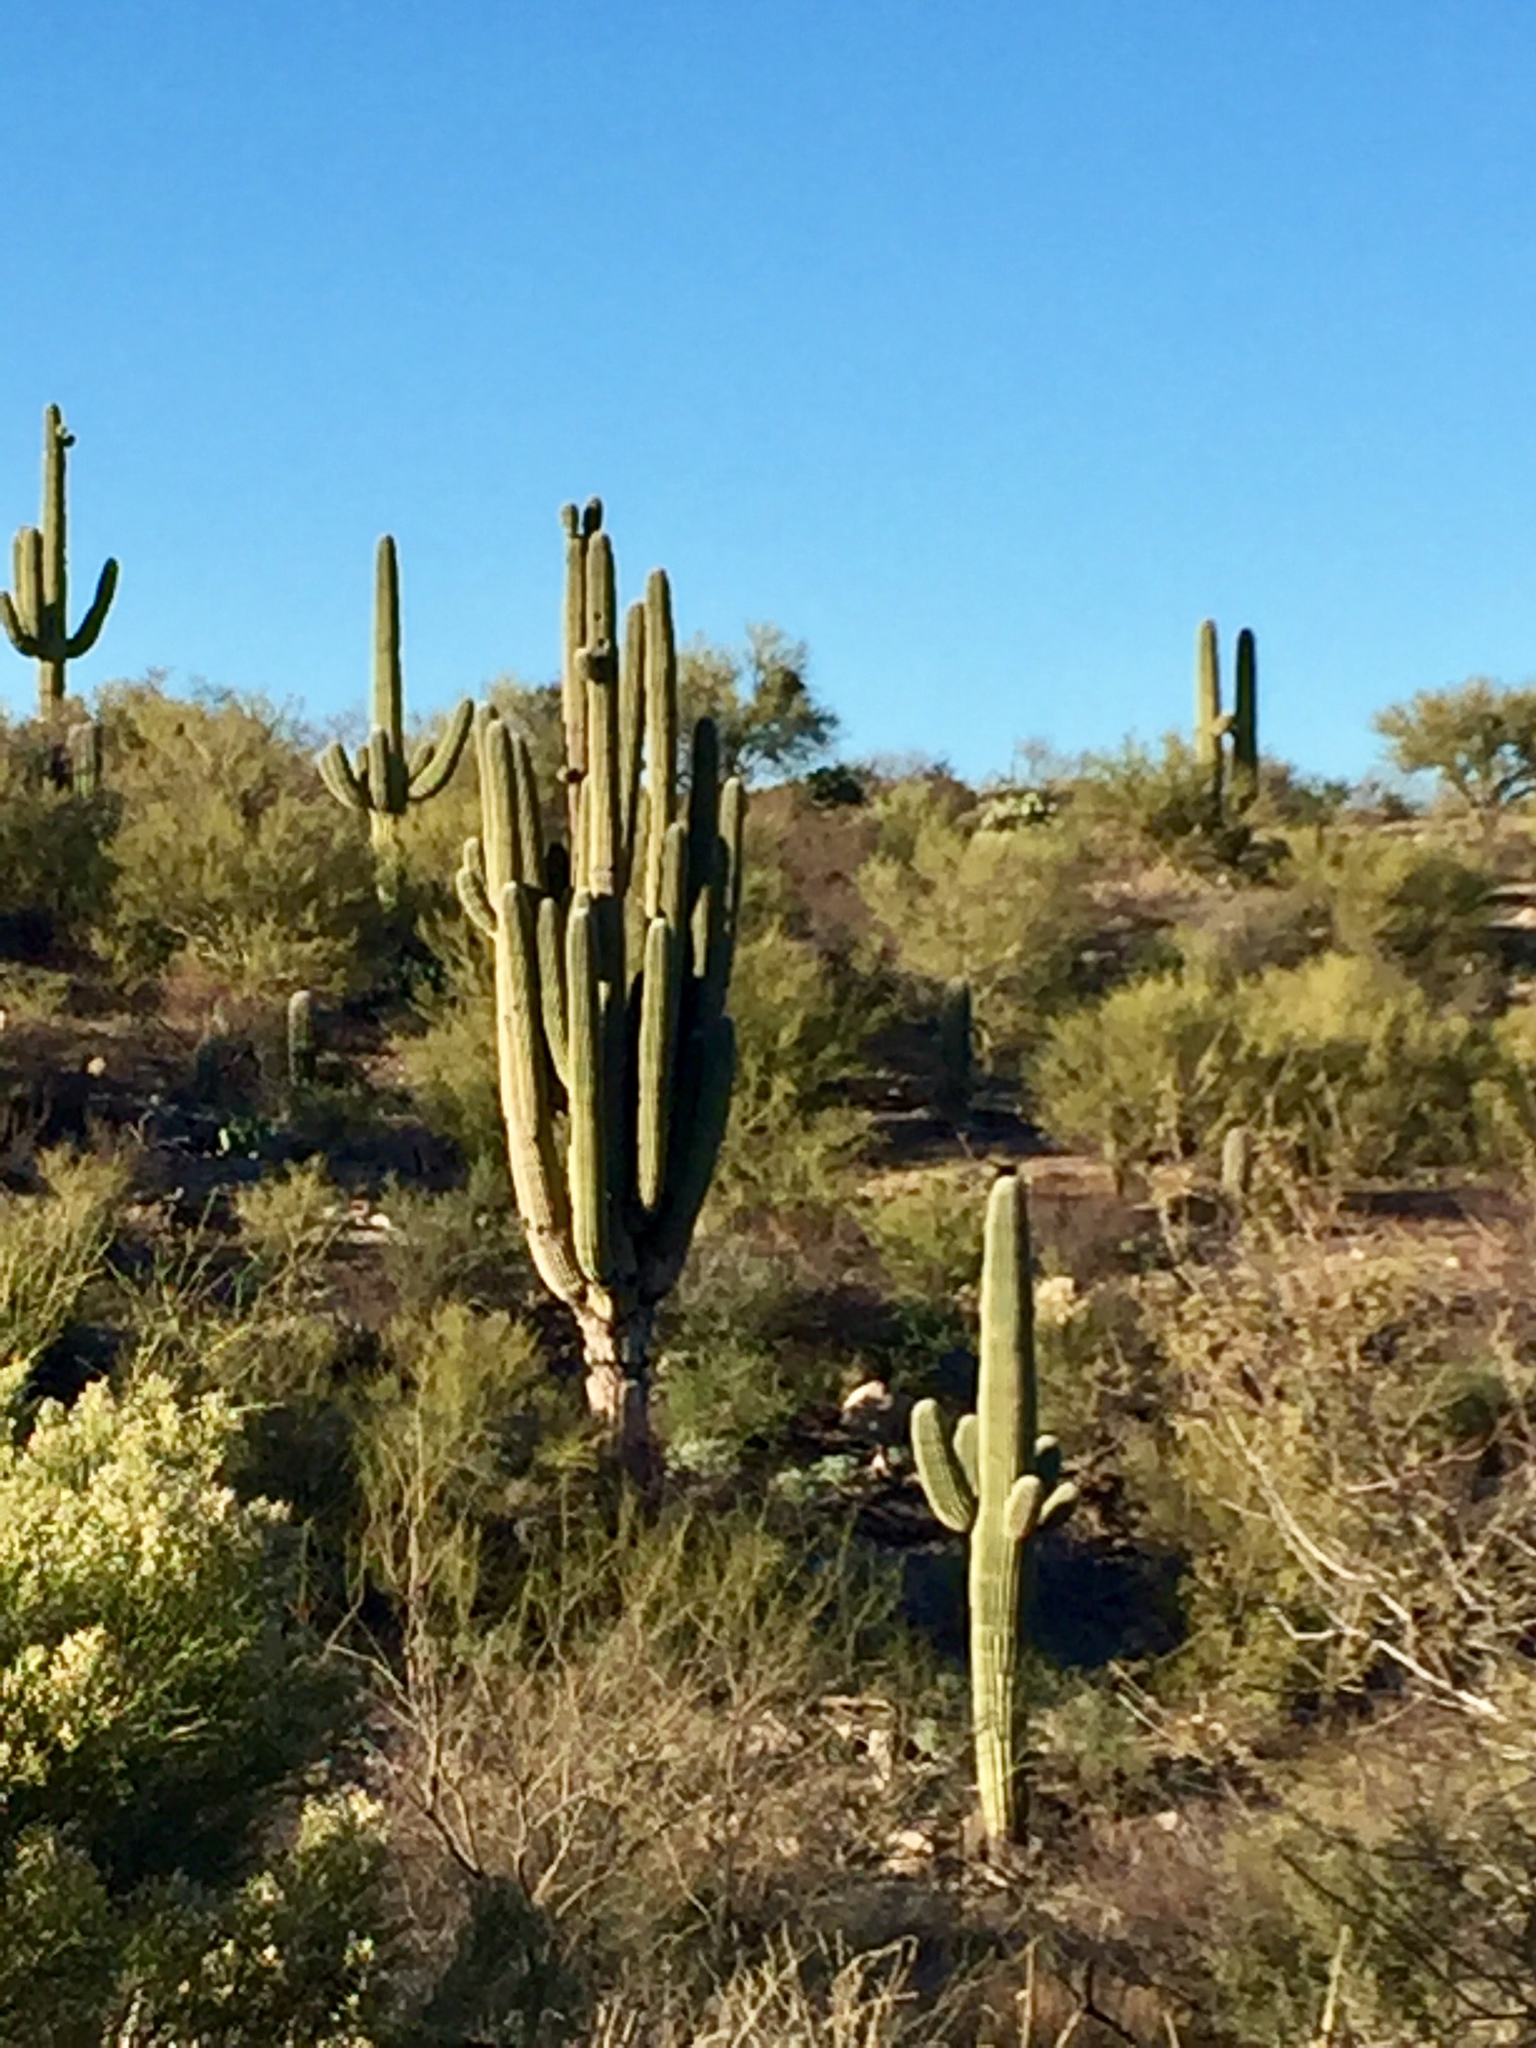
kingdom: Plantae
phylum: Tracheophyta
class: Magnoliopsida
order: Caryophyllales
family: Cactaceae
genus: Carnegiea
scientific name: Carnegiea gigantea
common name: Saguaro
